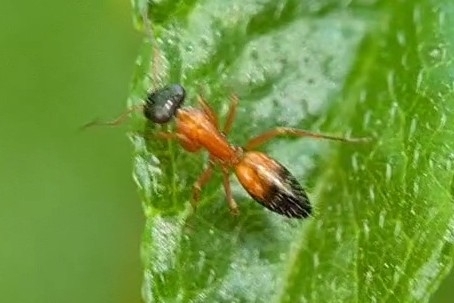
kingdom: Animalia
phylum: Arthropoda
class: Insecta
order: Hymenoptera
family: Formicidae
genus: Opisthopsis
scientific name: Opisthopsis rufithorax
